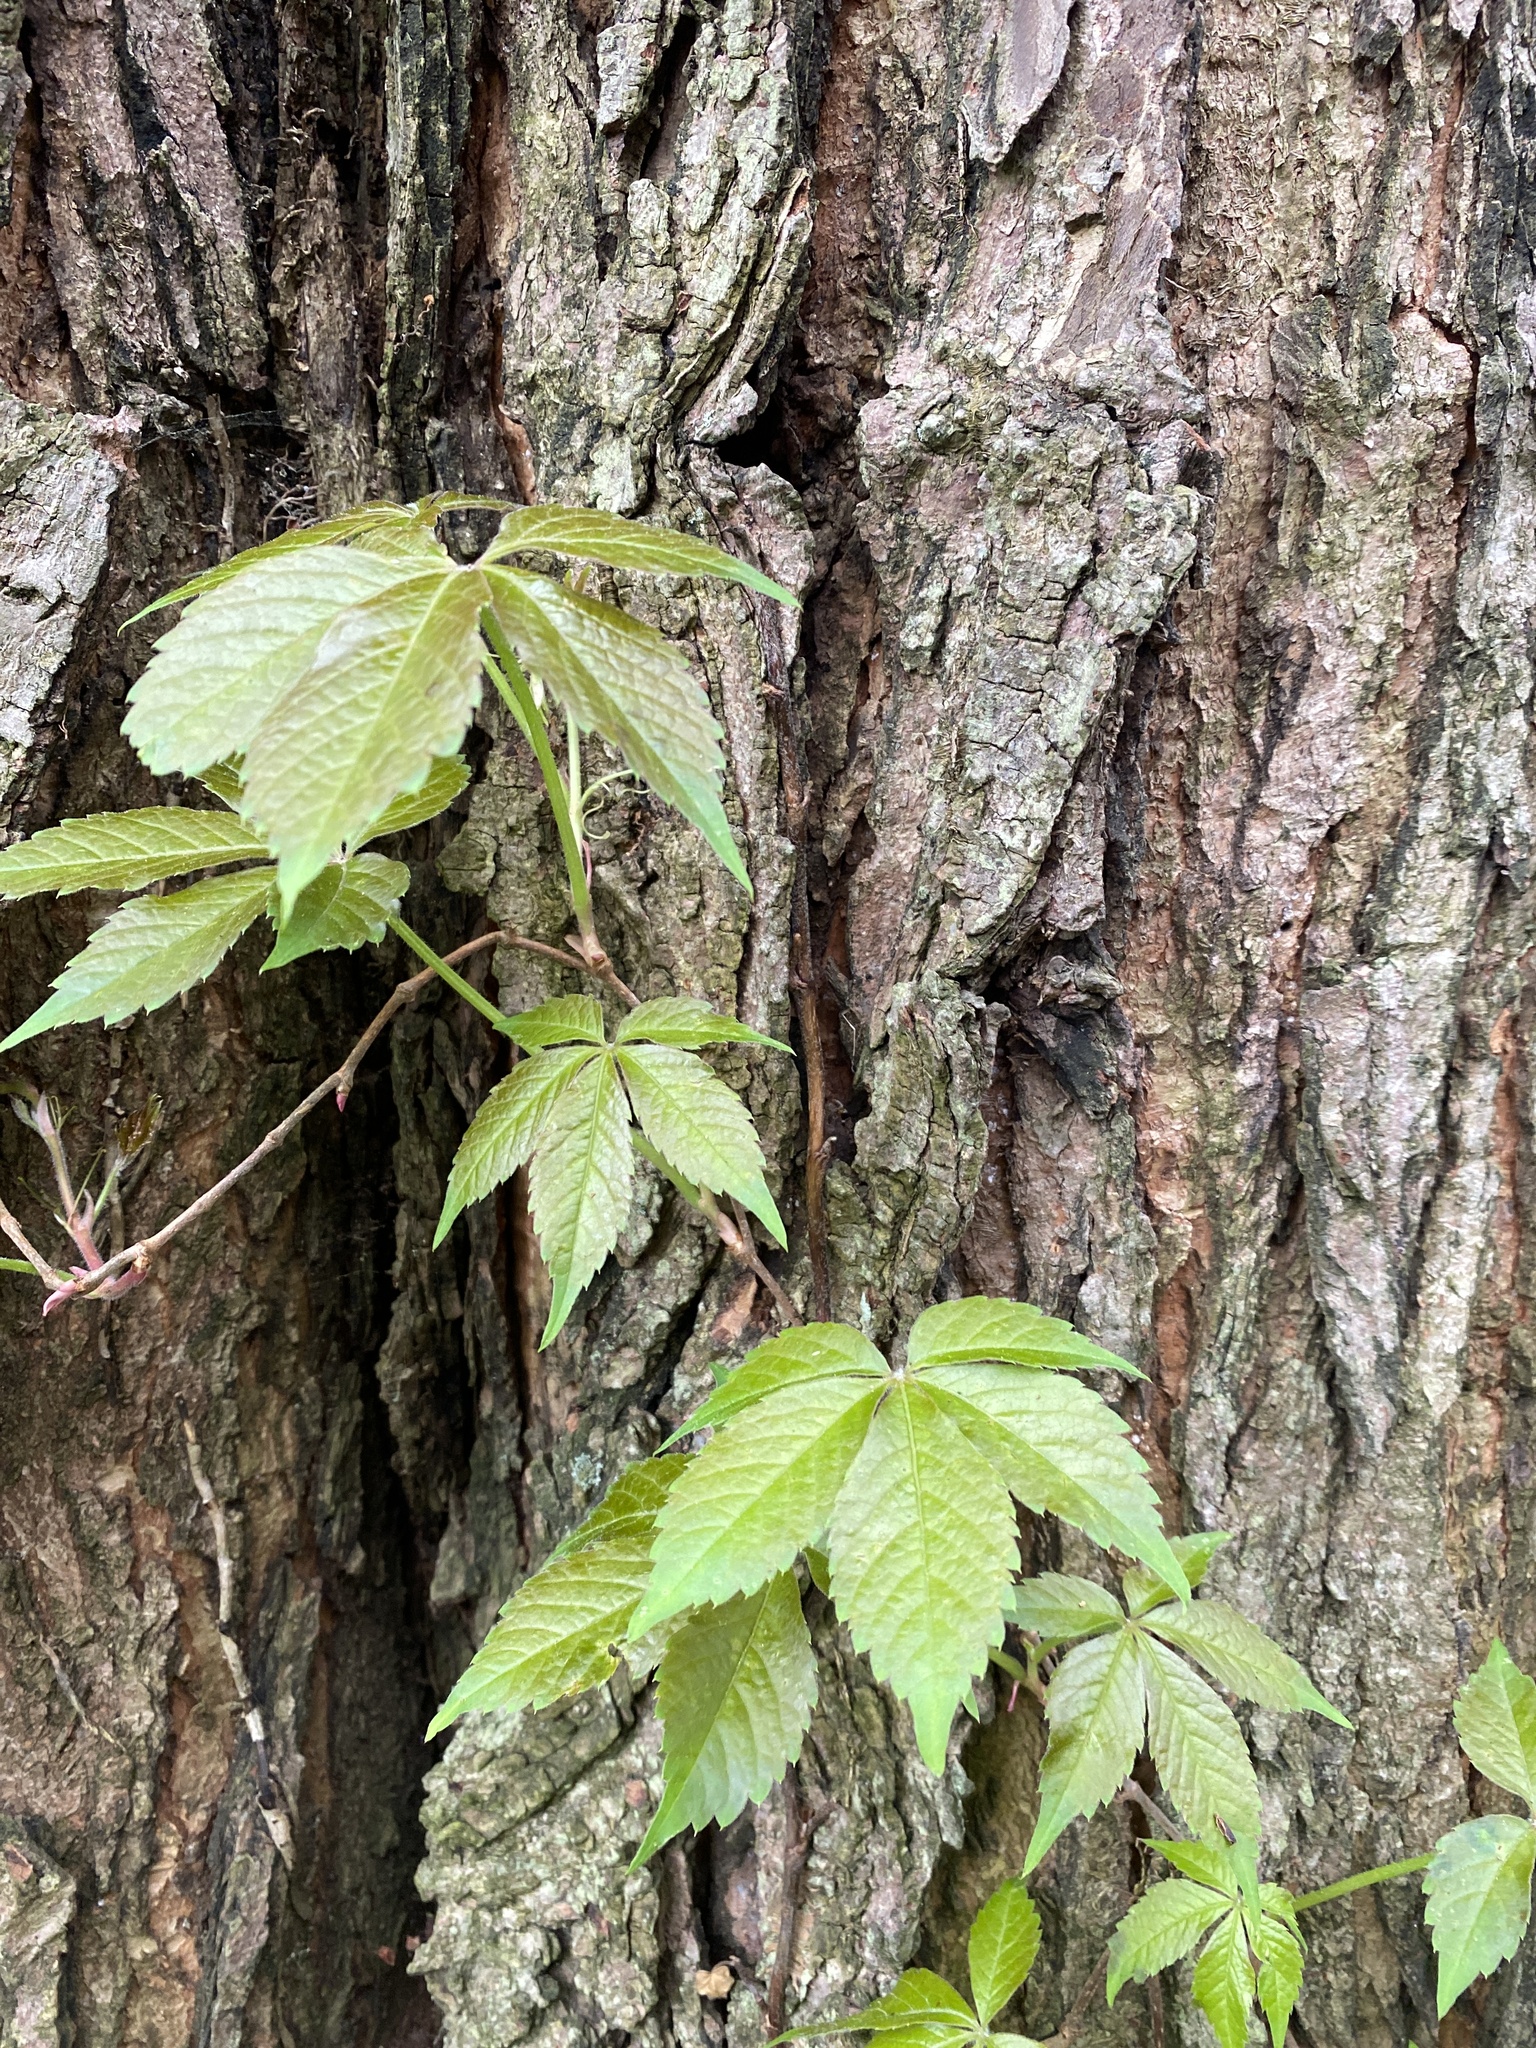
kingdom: Plantae
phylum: Tracheophyta
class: Magnoliopsida
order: Vitales
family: Vitaceae
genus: Parthenocissus
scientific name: Parthenocissus quinquefolia
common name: Virginia-creeper
